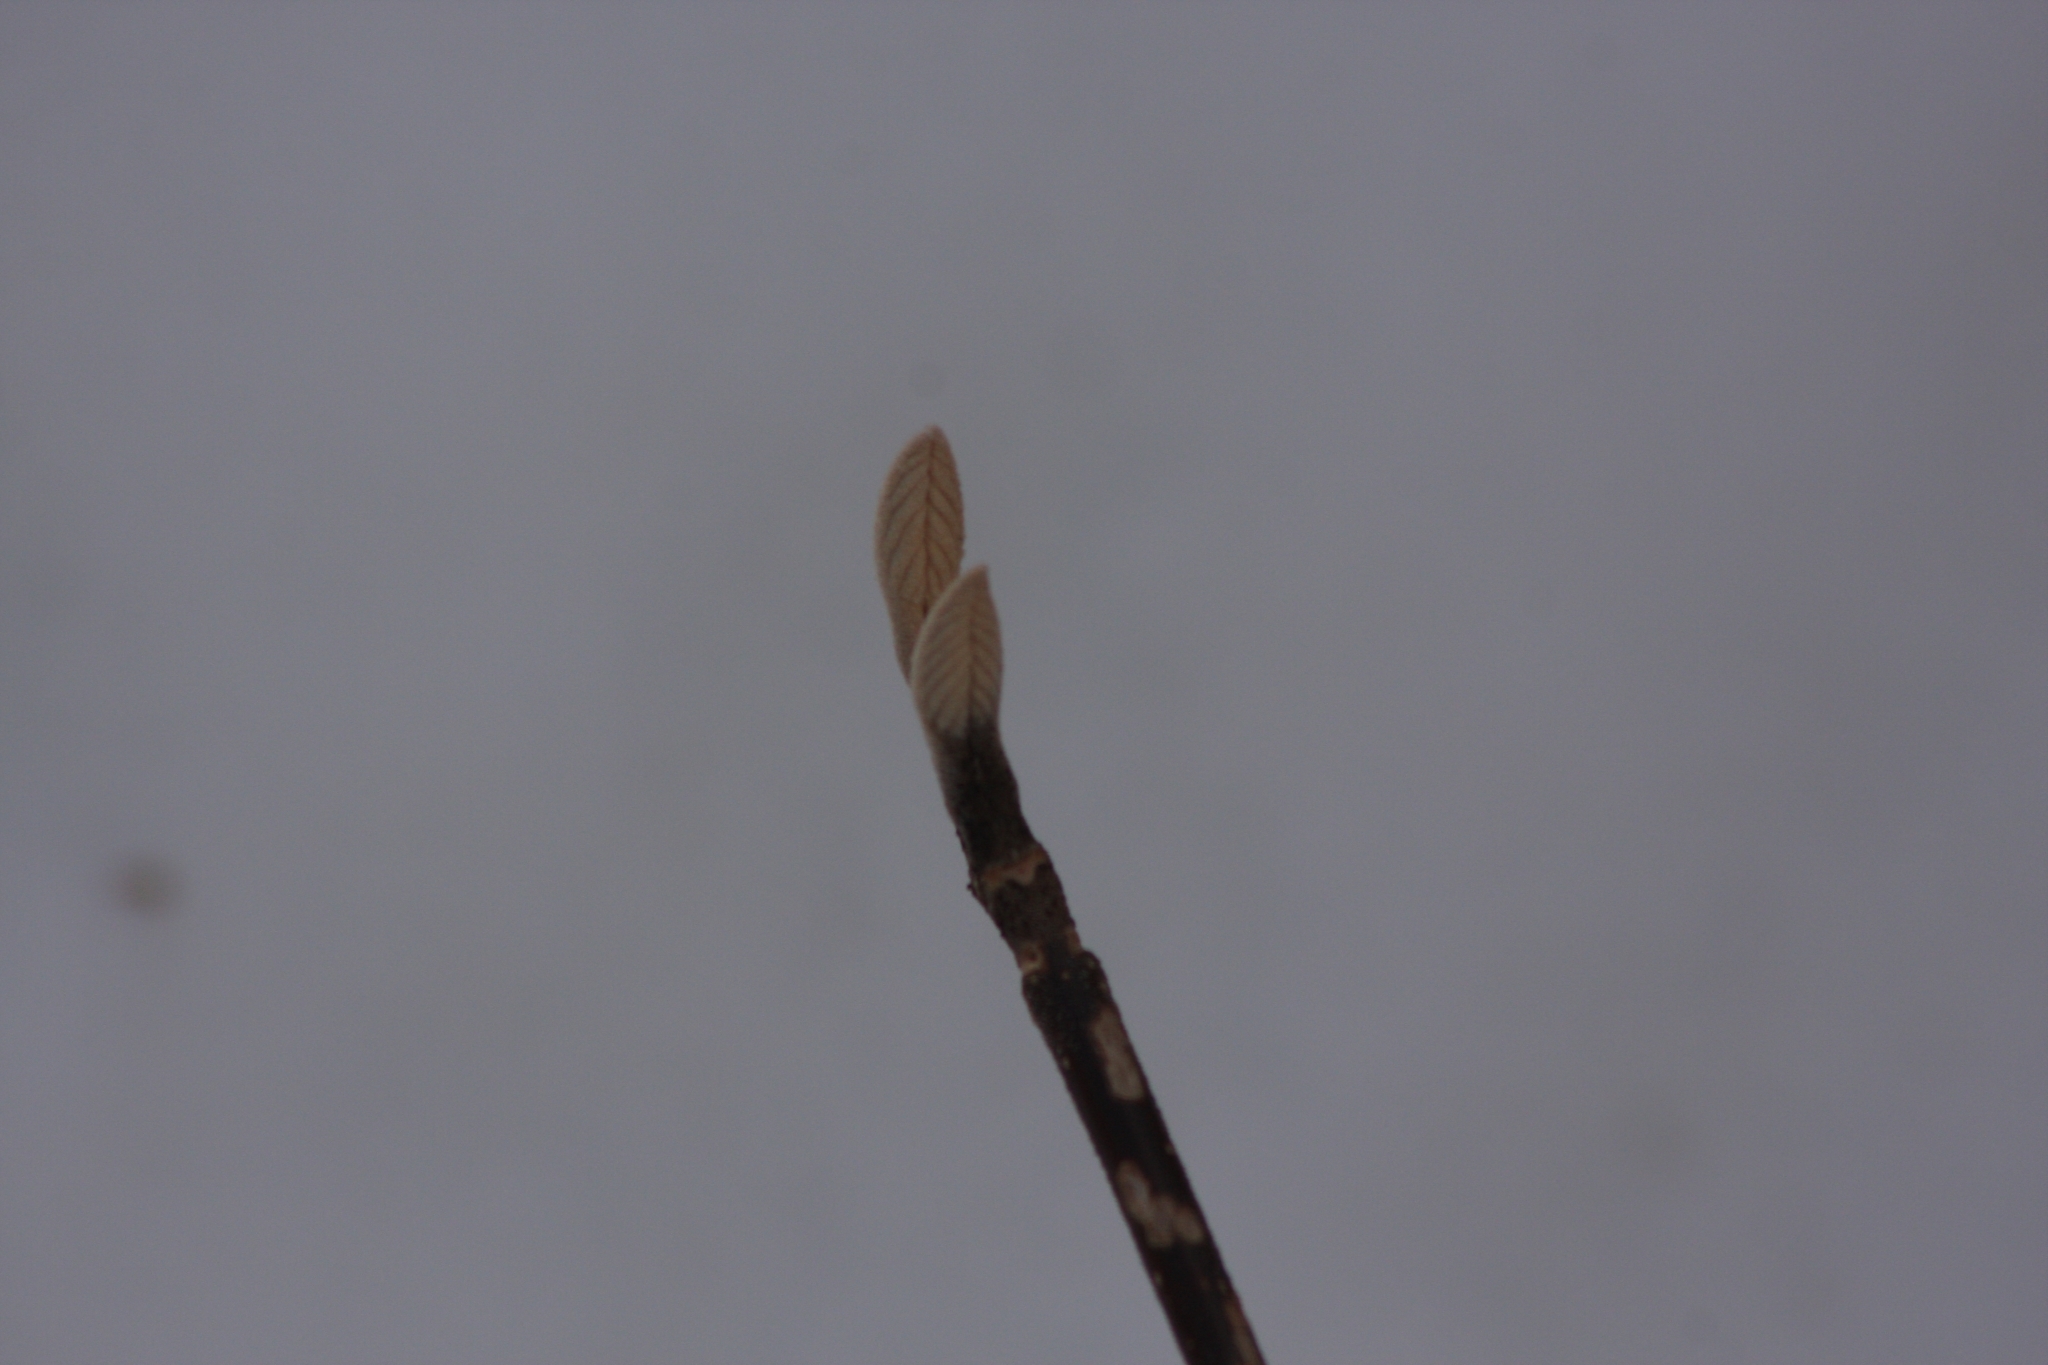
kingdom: Plantae
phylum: Tracheophyta
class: Magnoliopsida
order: Dipsacales
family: Viburnaceae
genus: Viburnum
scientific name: Viburnum lantanoides
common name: Hobblebush
